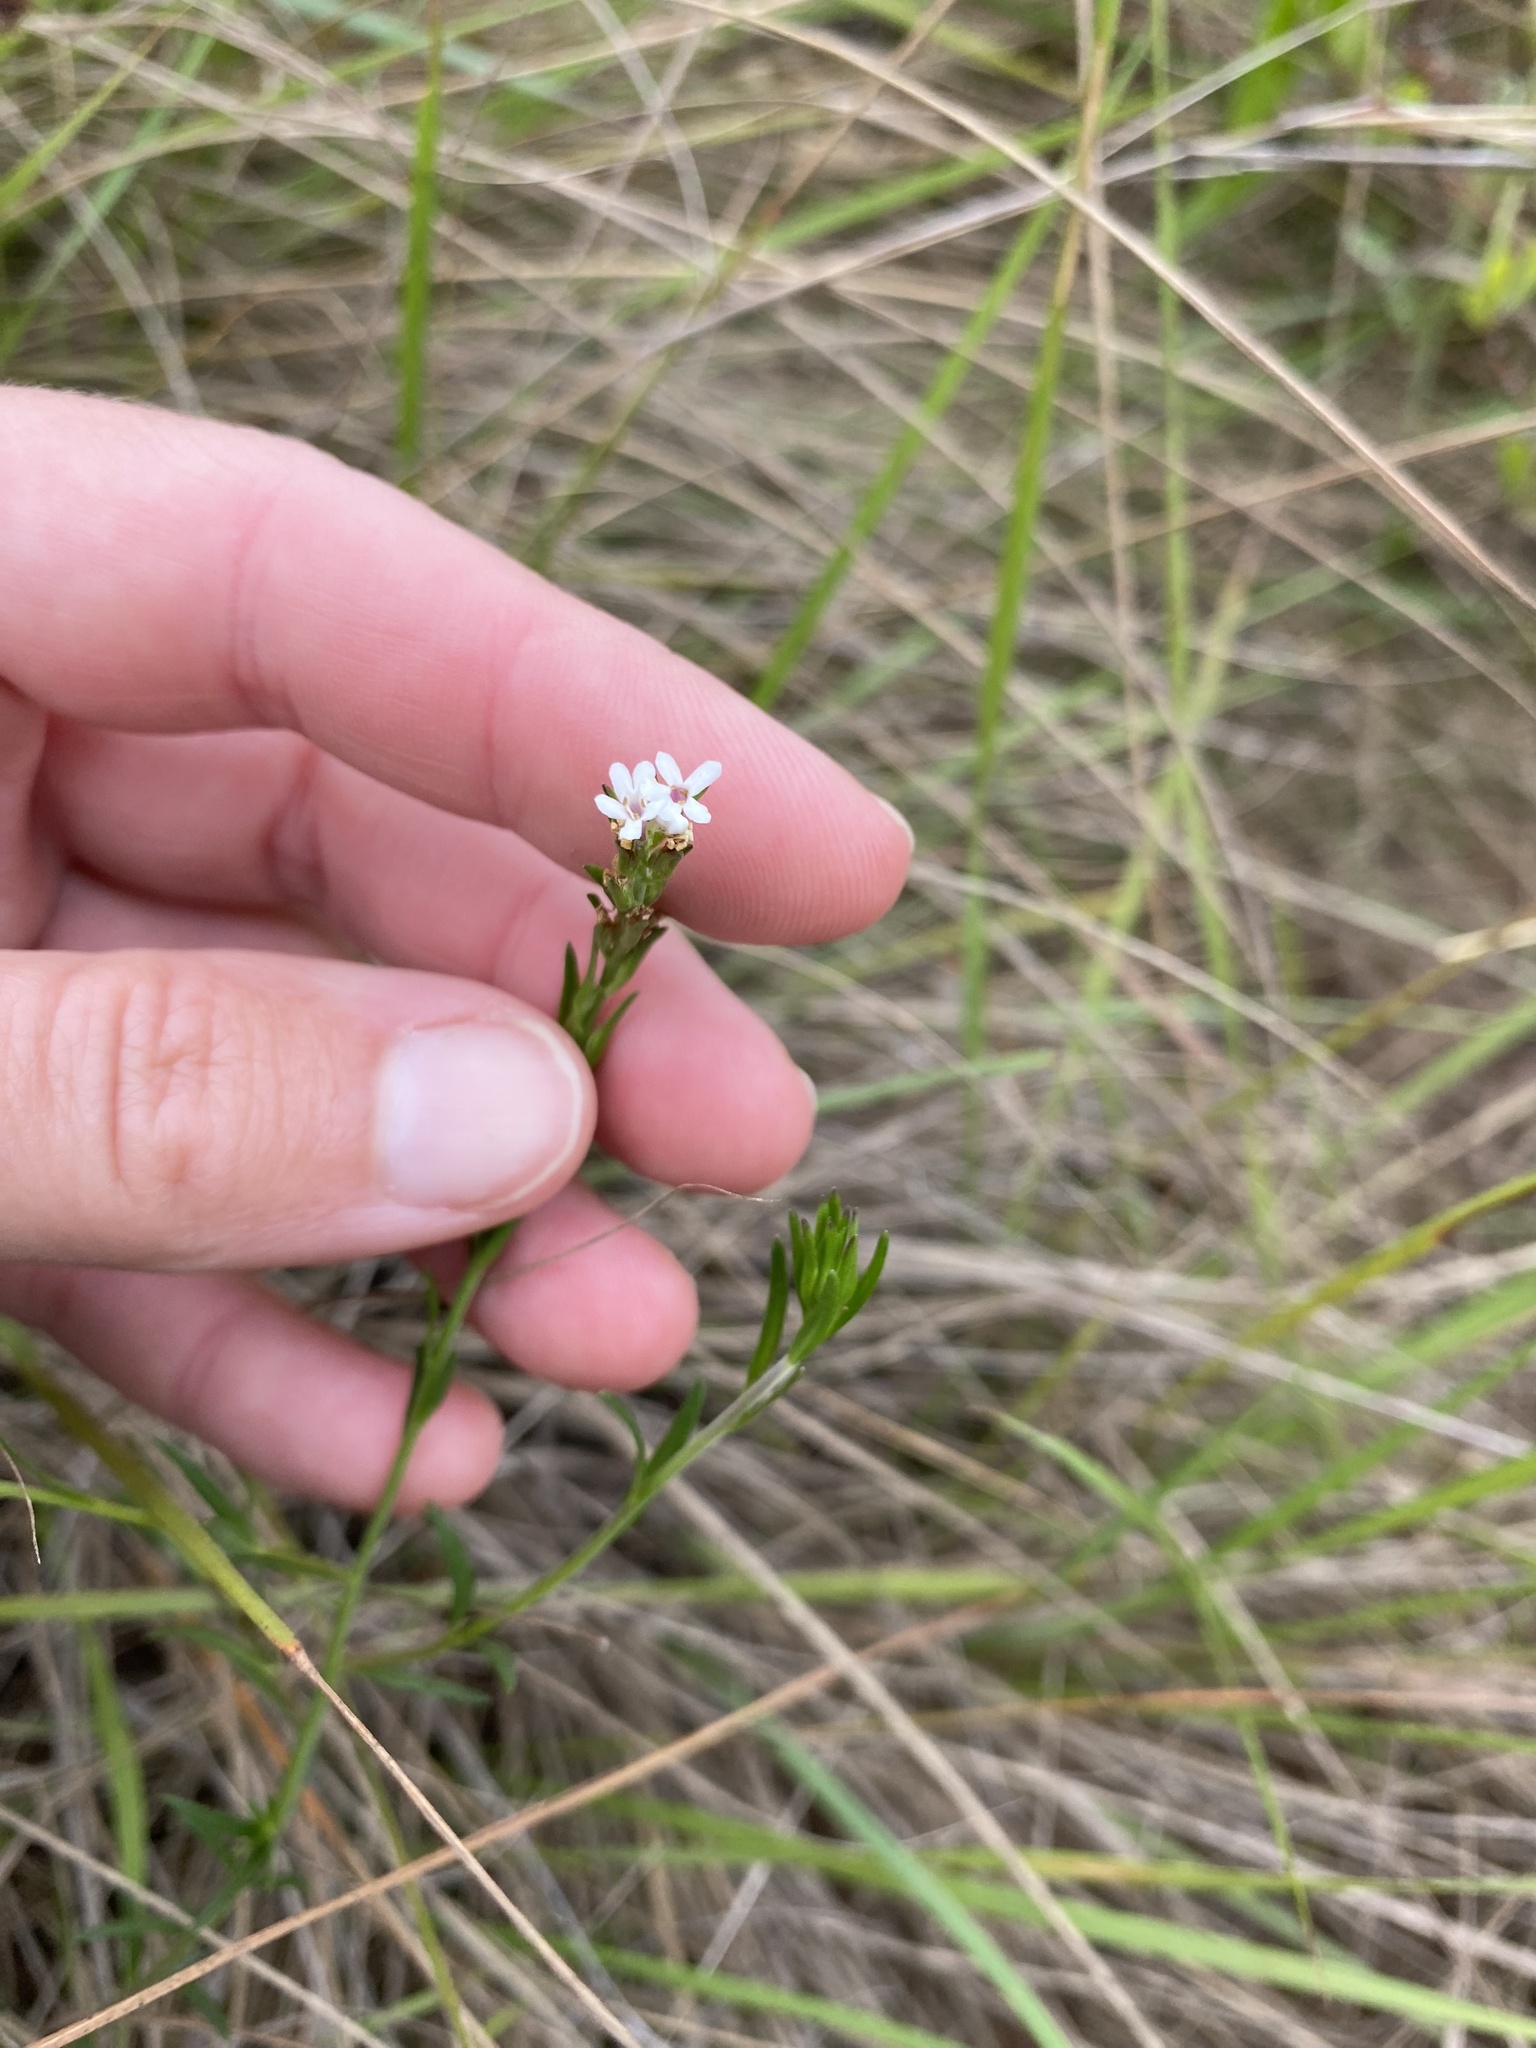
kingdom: Plantae
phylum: Tracheophyta
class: Magnoliopsida
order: Lamiales
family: Orobanchaceae
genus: Buchnera
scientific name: Buchnera dura
